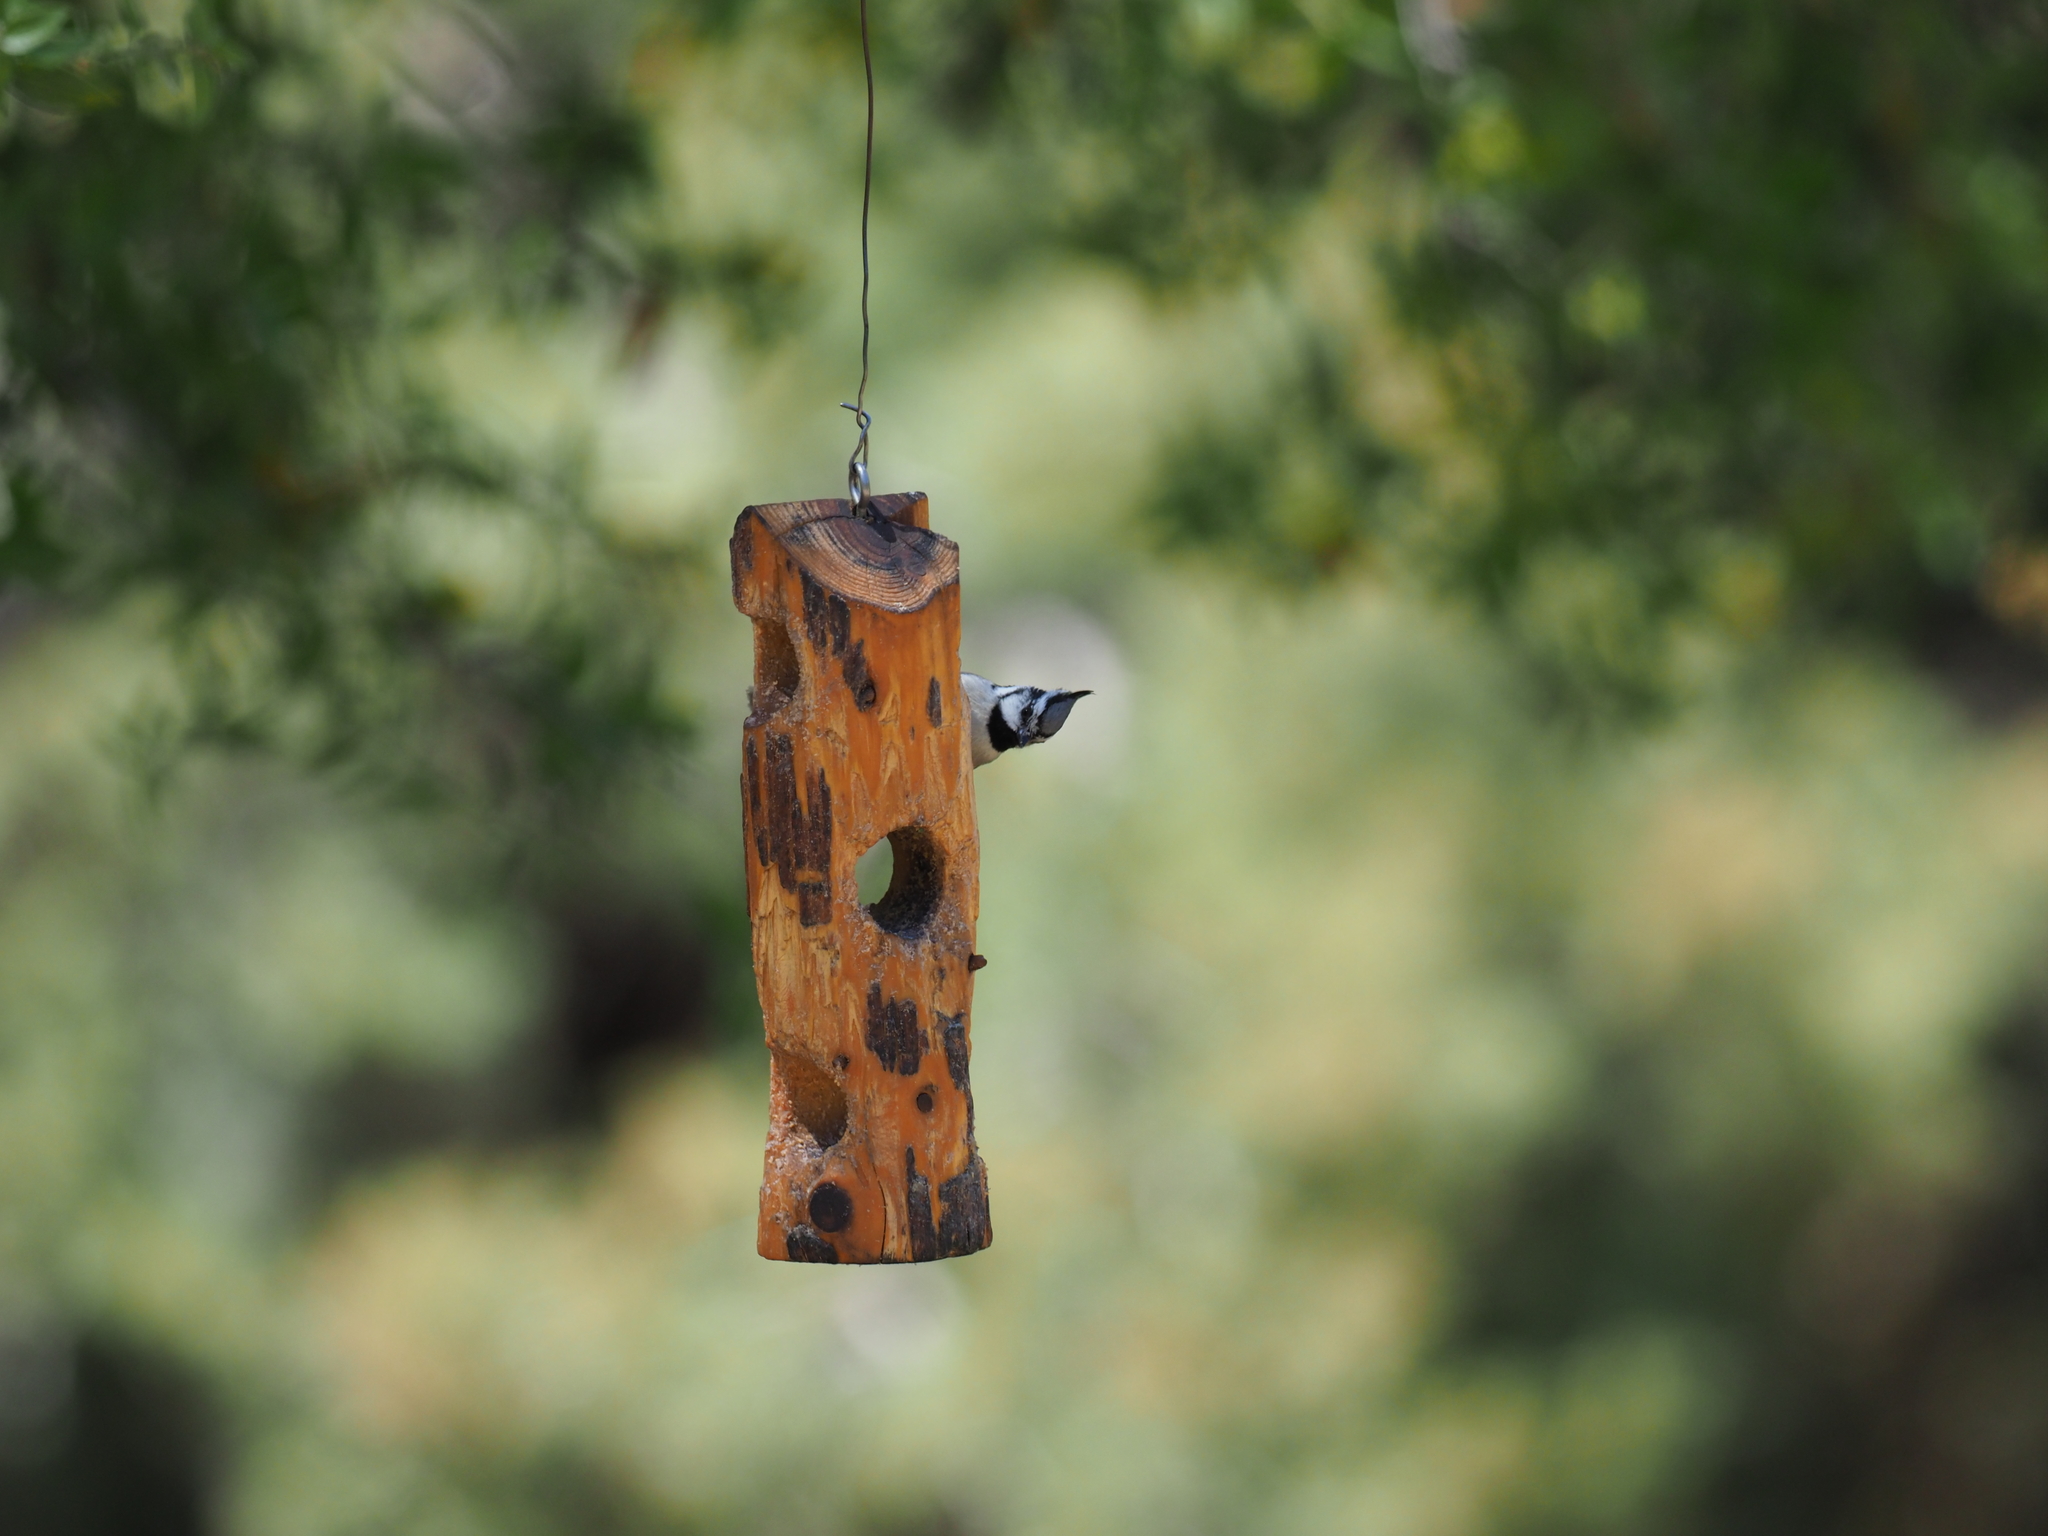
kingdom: Animalia
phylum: Chordata
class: Aves
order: Passeriformes
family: Paridae
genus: Baeolophus
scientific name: Baeolophus wollweberi
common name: Bridled titmouse
